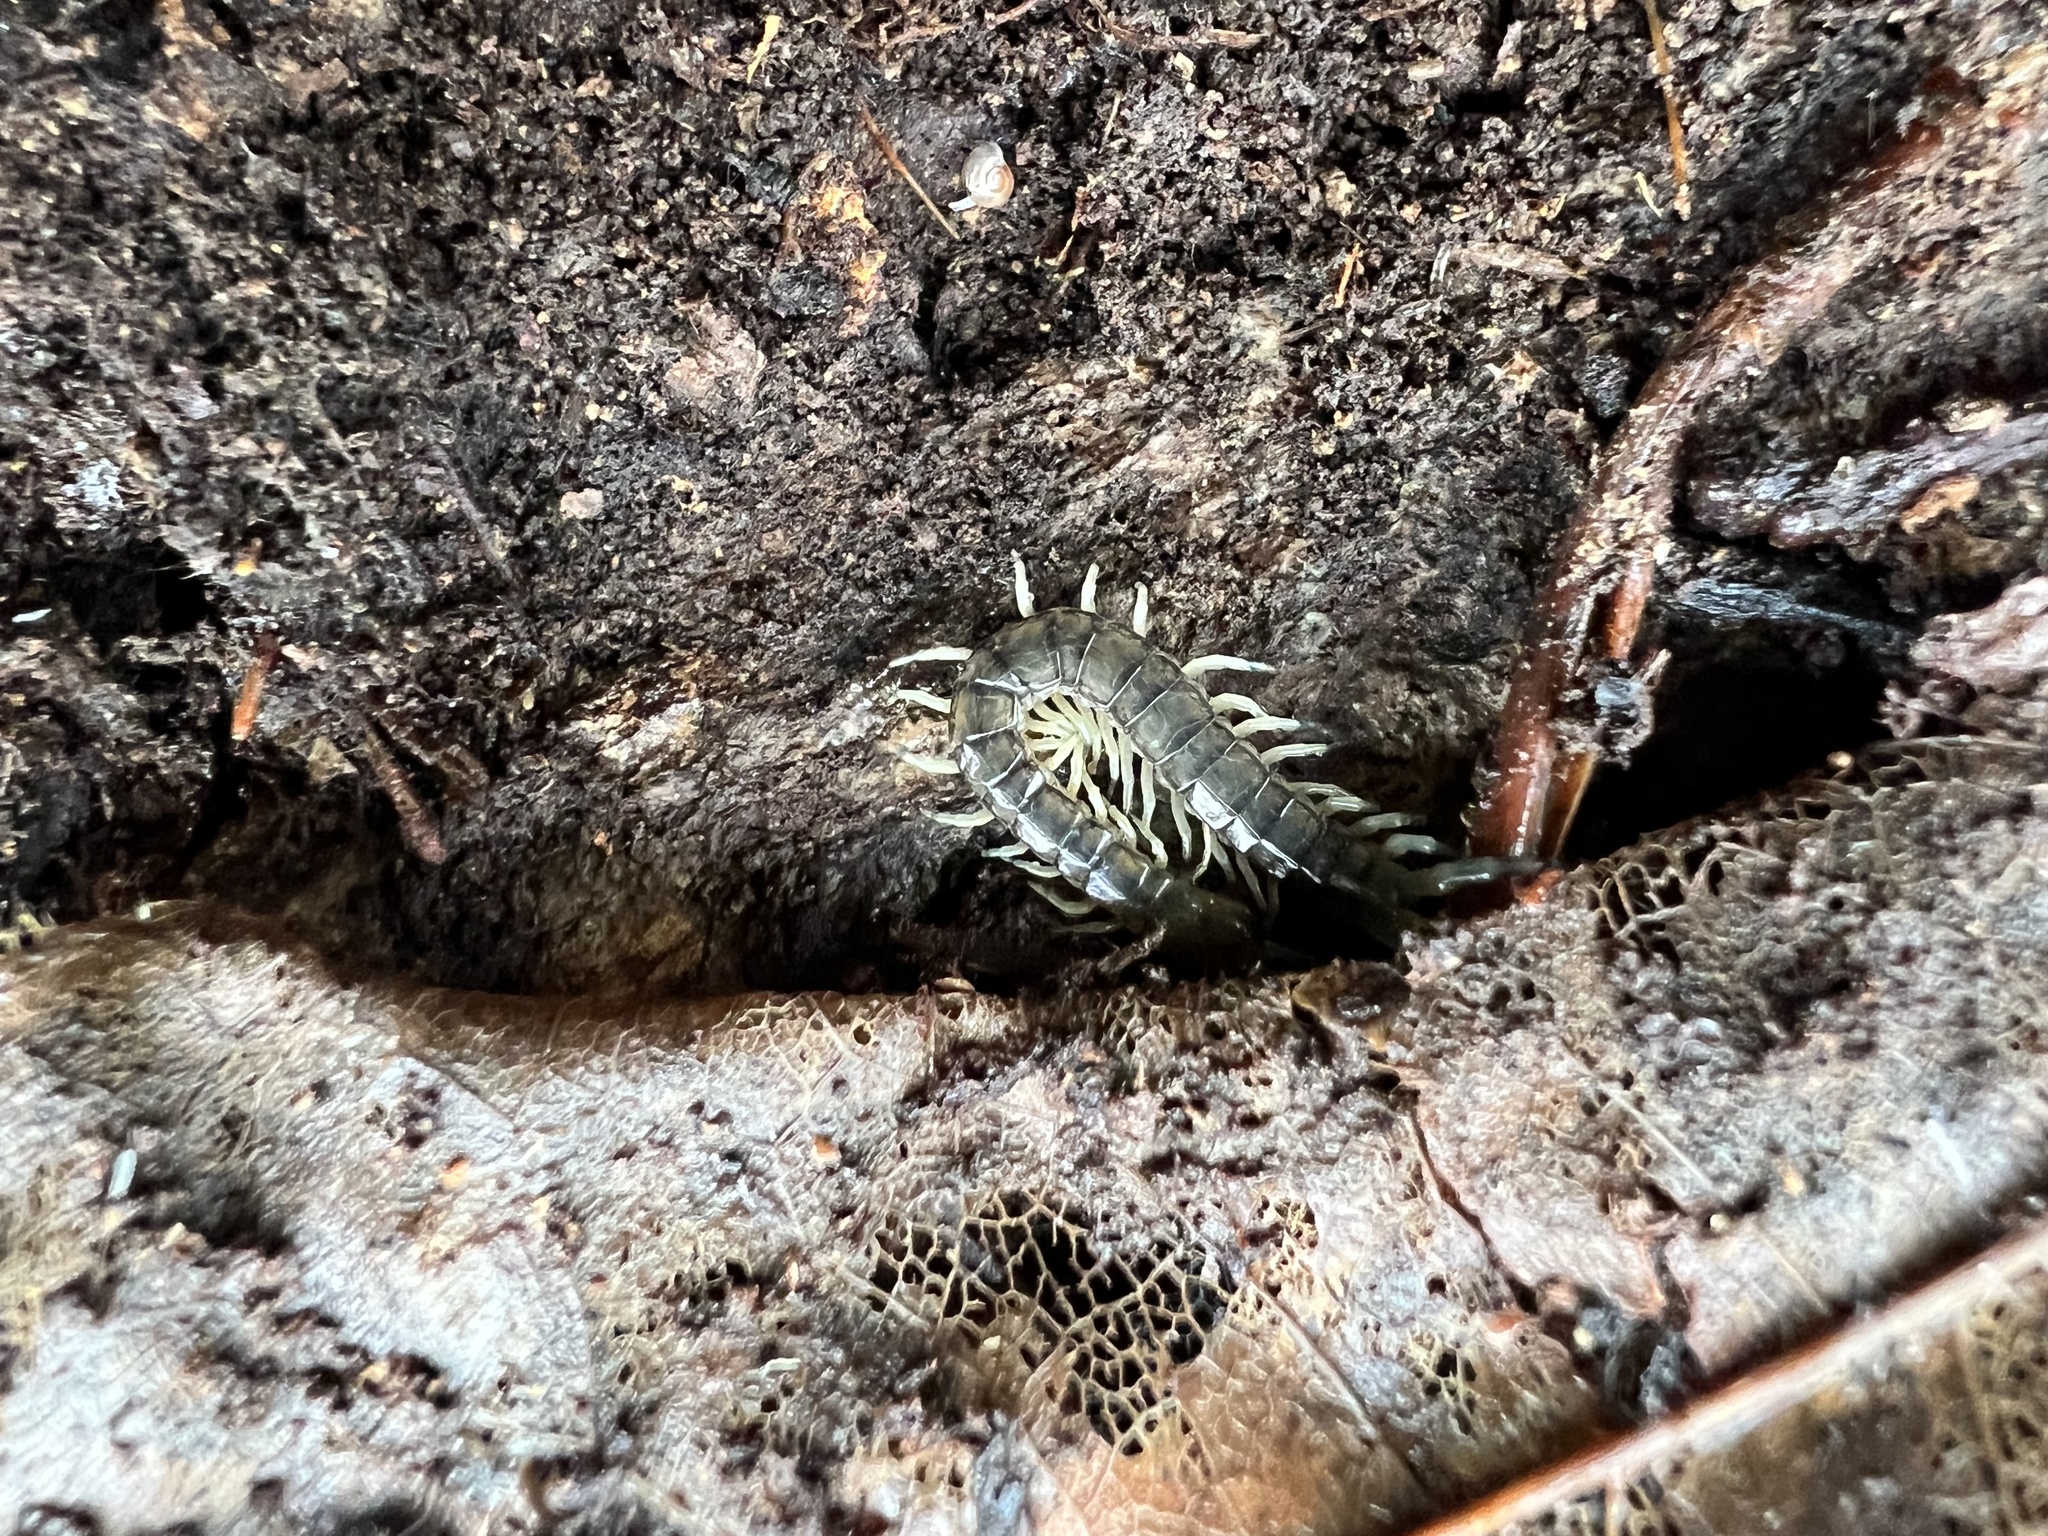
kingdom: Animalia
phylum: Arthropoda
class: Chilopoda
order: Scolopendromorpha
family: Scolopendridae
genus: Hemiscolopendra
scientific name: Hemiscolopendra marginata
